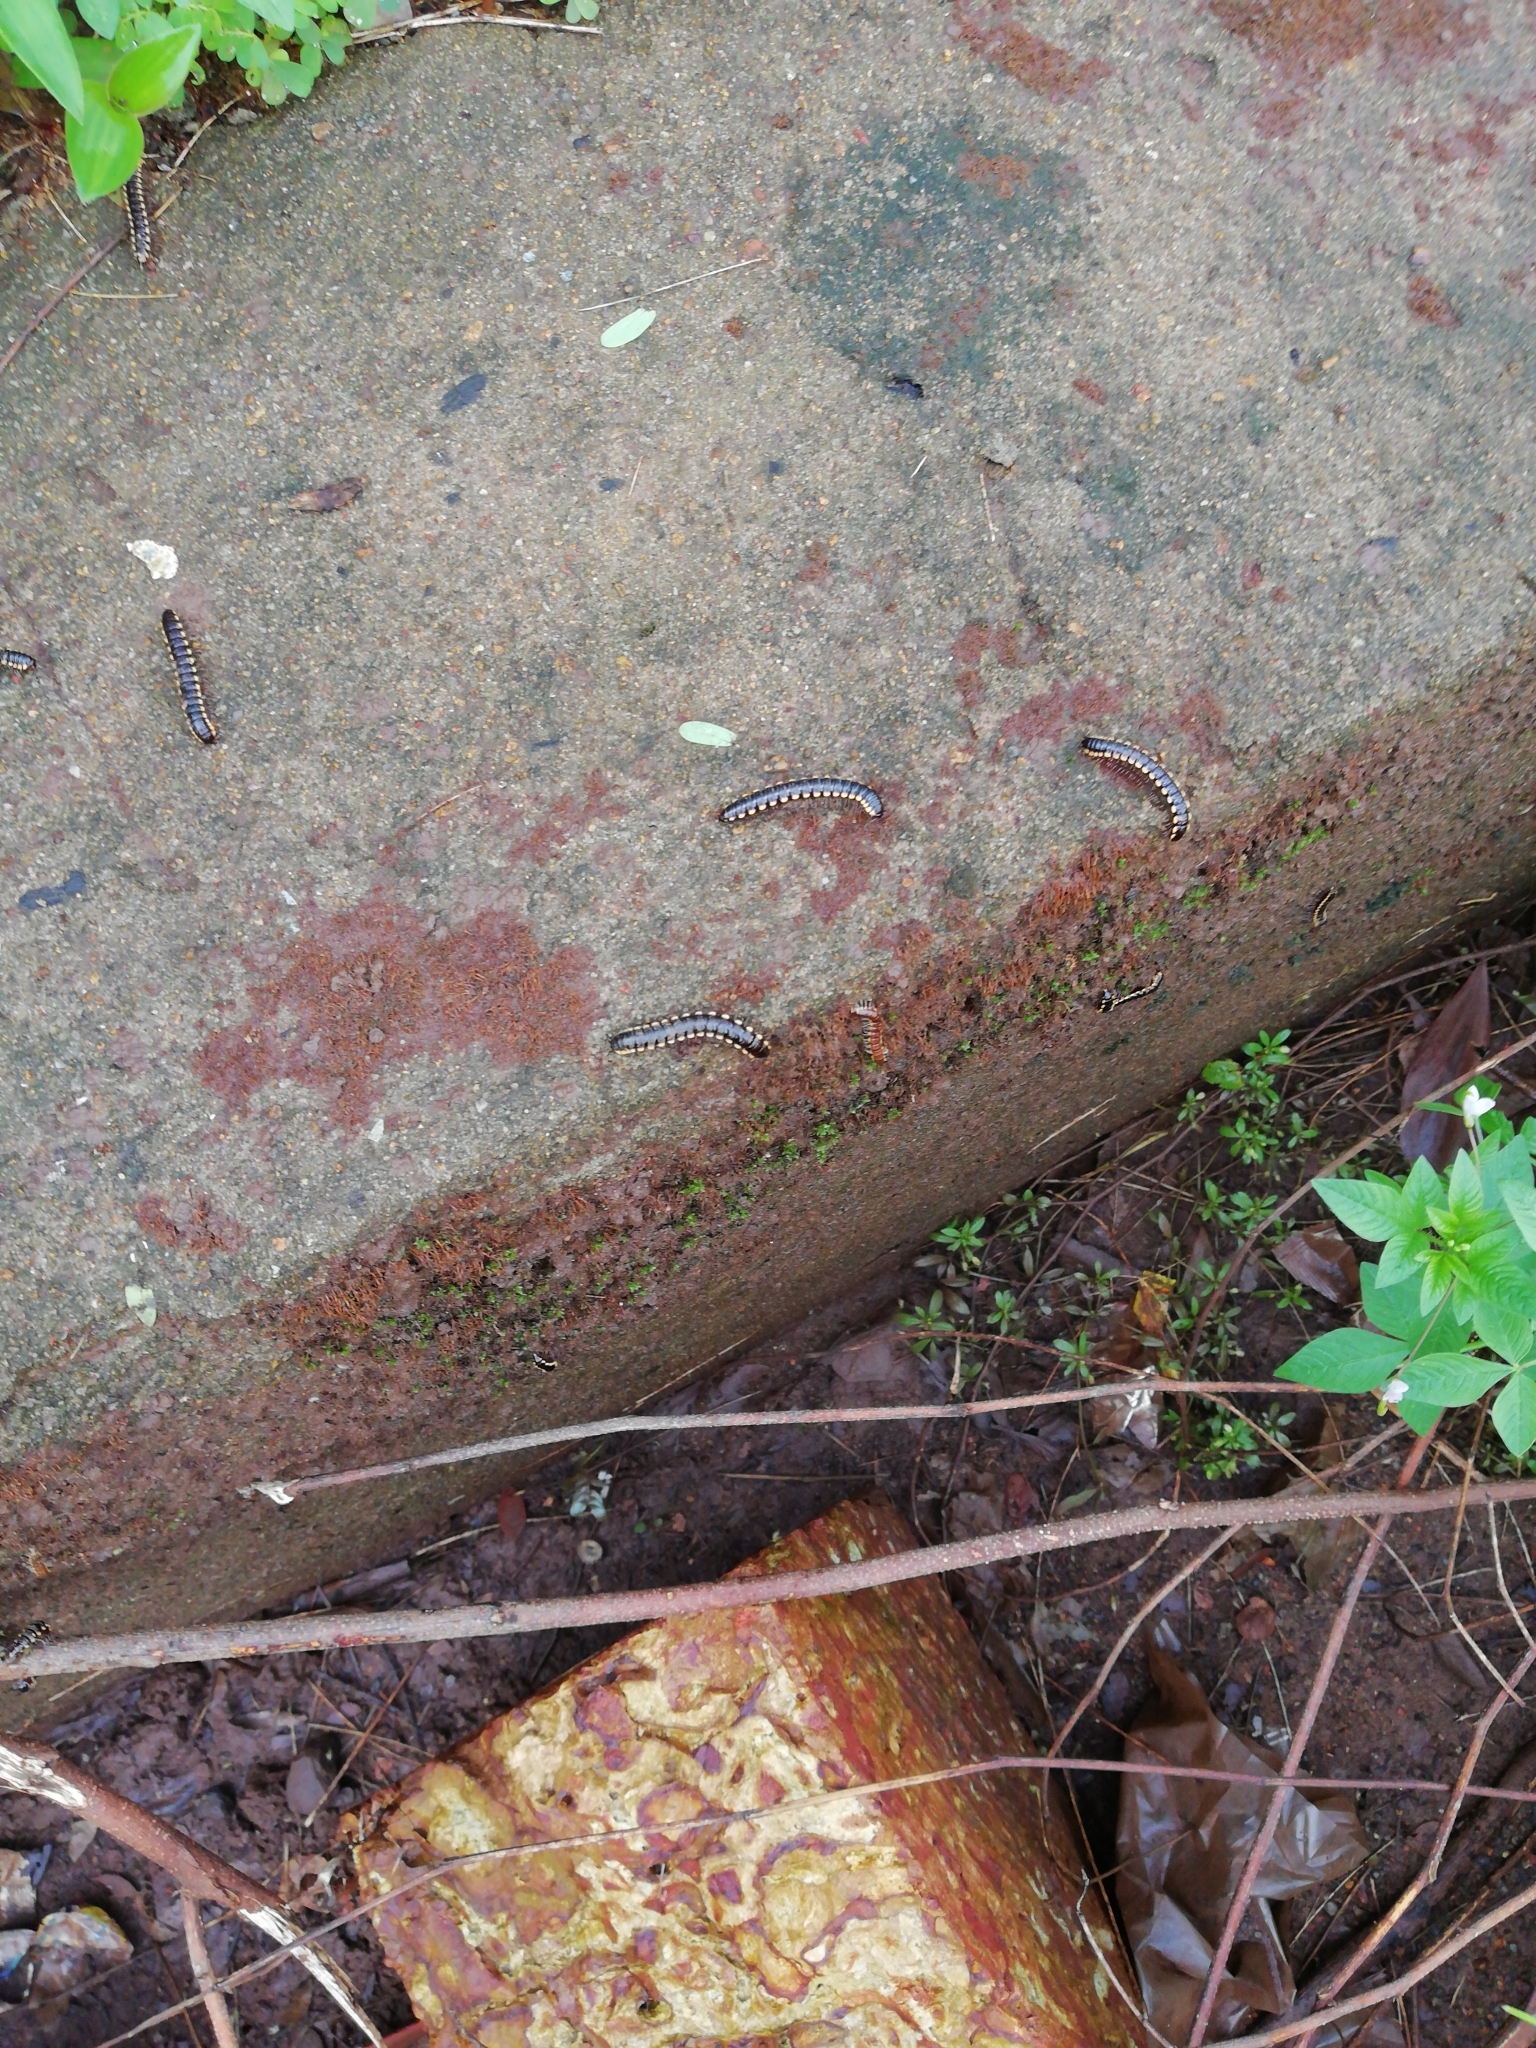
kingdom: Animalia
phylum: Arthropoda
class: Diplopoda
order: Polydesmida
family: Paradoxosomatidae
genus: Anoplodesmus
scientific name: Anoplodesmus saussurii
